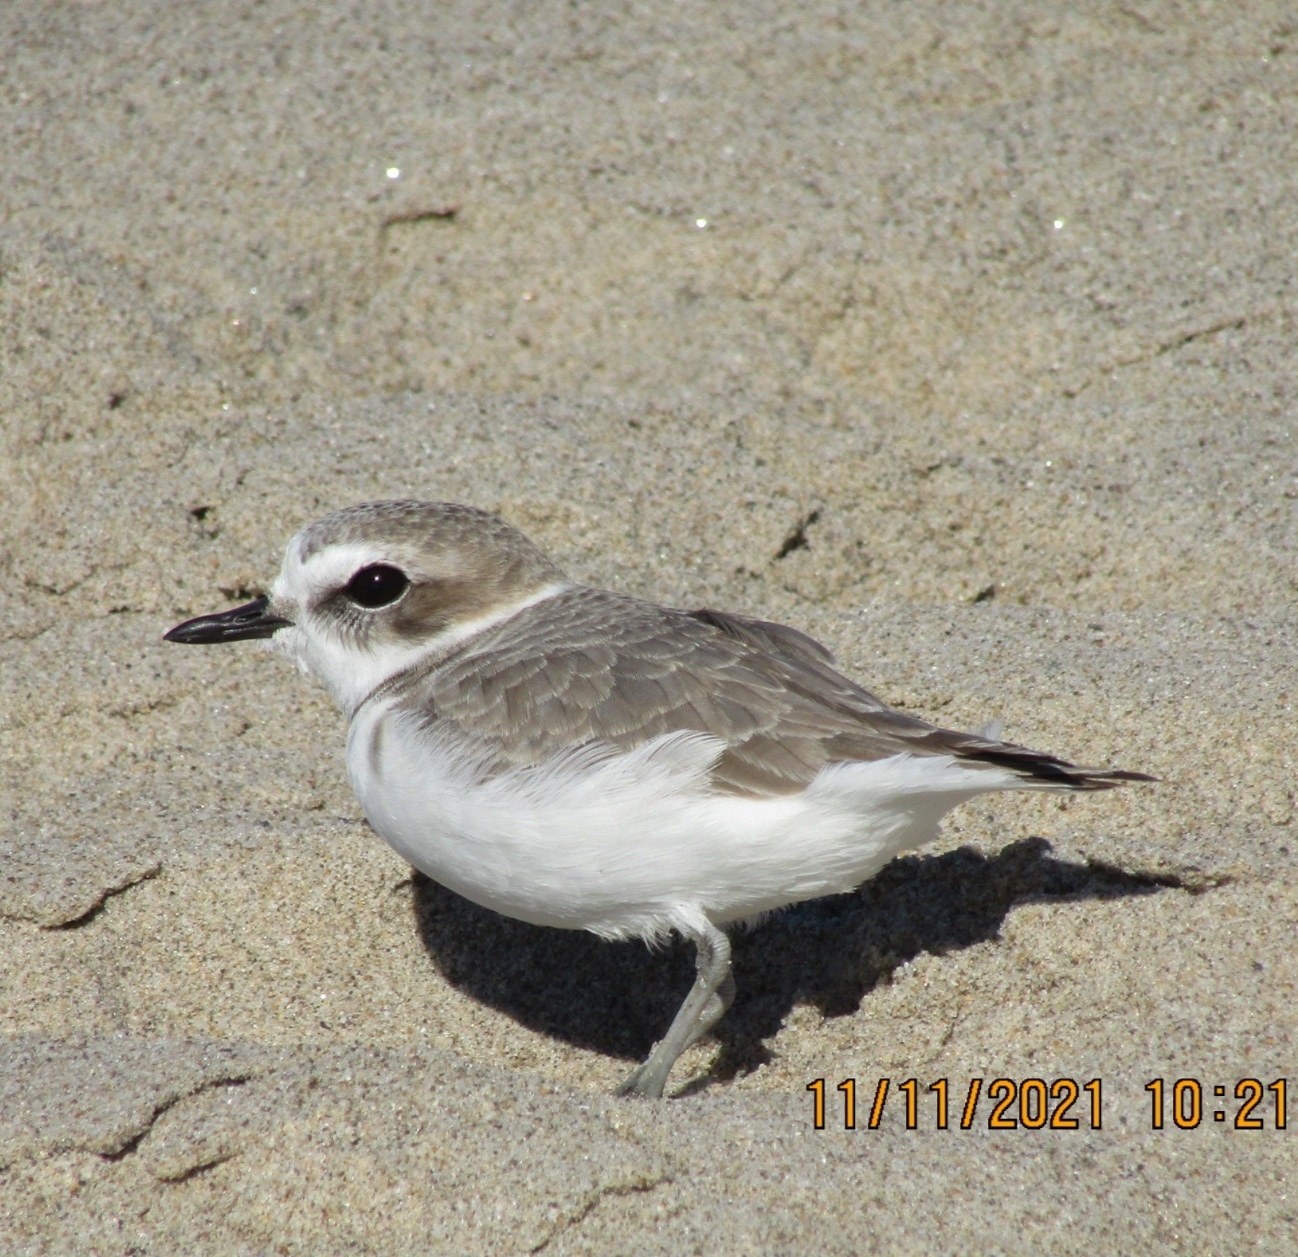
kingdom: Animalia
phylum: Chordata
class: Aves
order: Charadriiformes
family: Charadriidae
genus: Anarhynchus
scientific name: Anarhynchus
